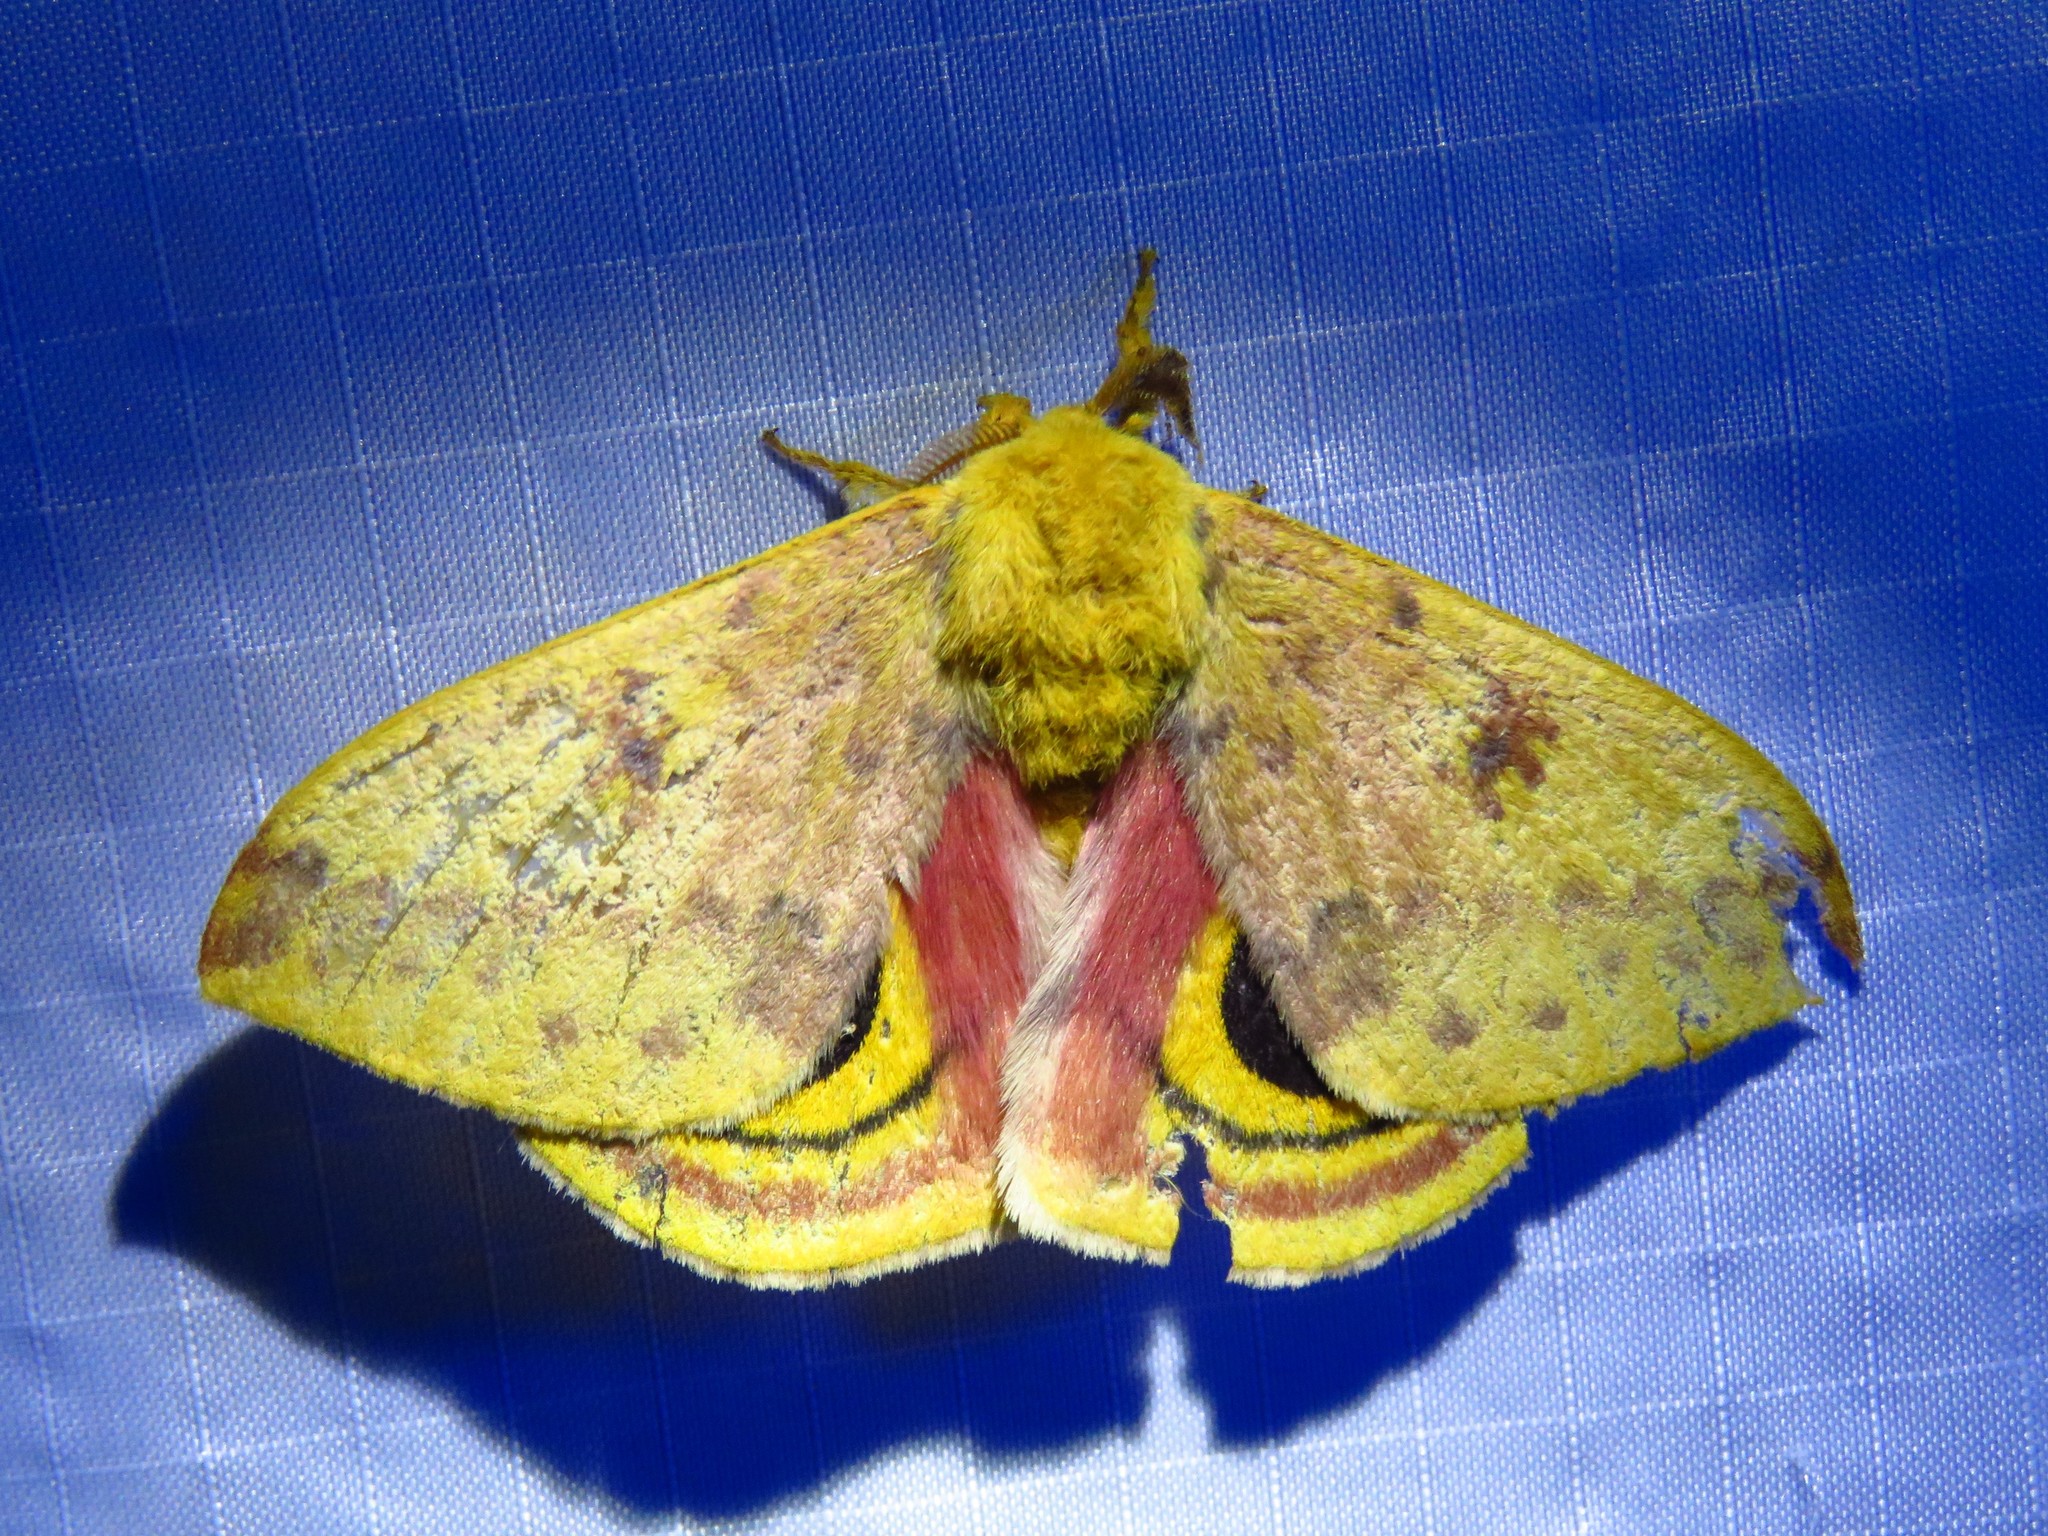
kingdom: Animalia
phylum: Arthropoda
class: Insecta
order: Lepidoptera
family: Saturniidae
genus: Automeris
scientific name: Automeris io
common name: Io moth
